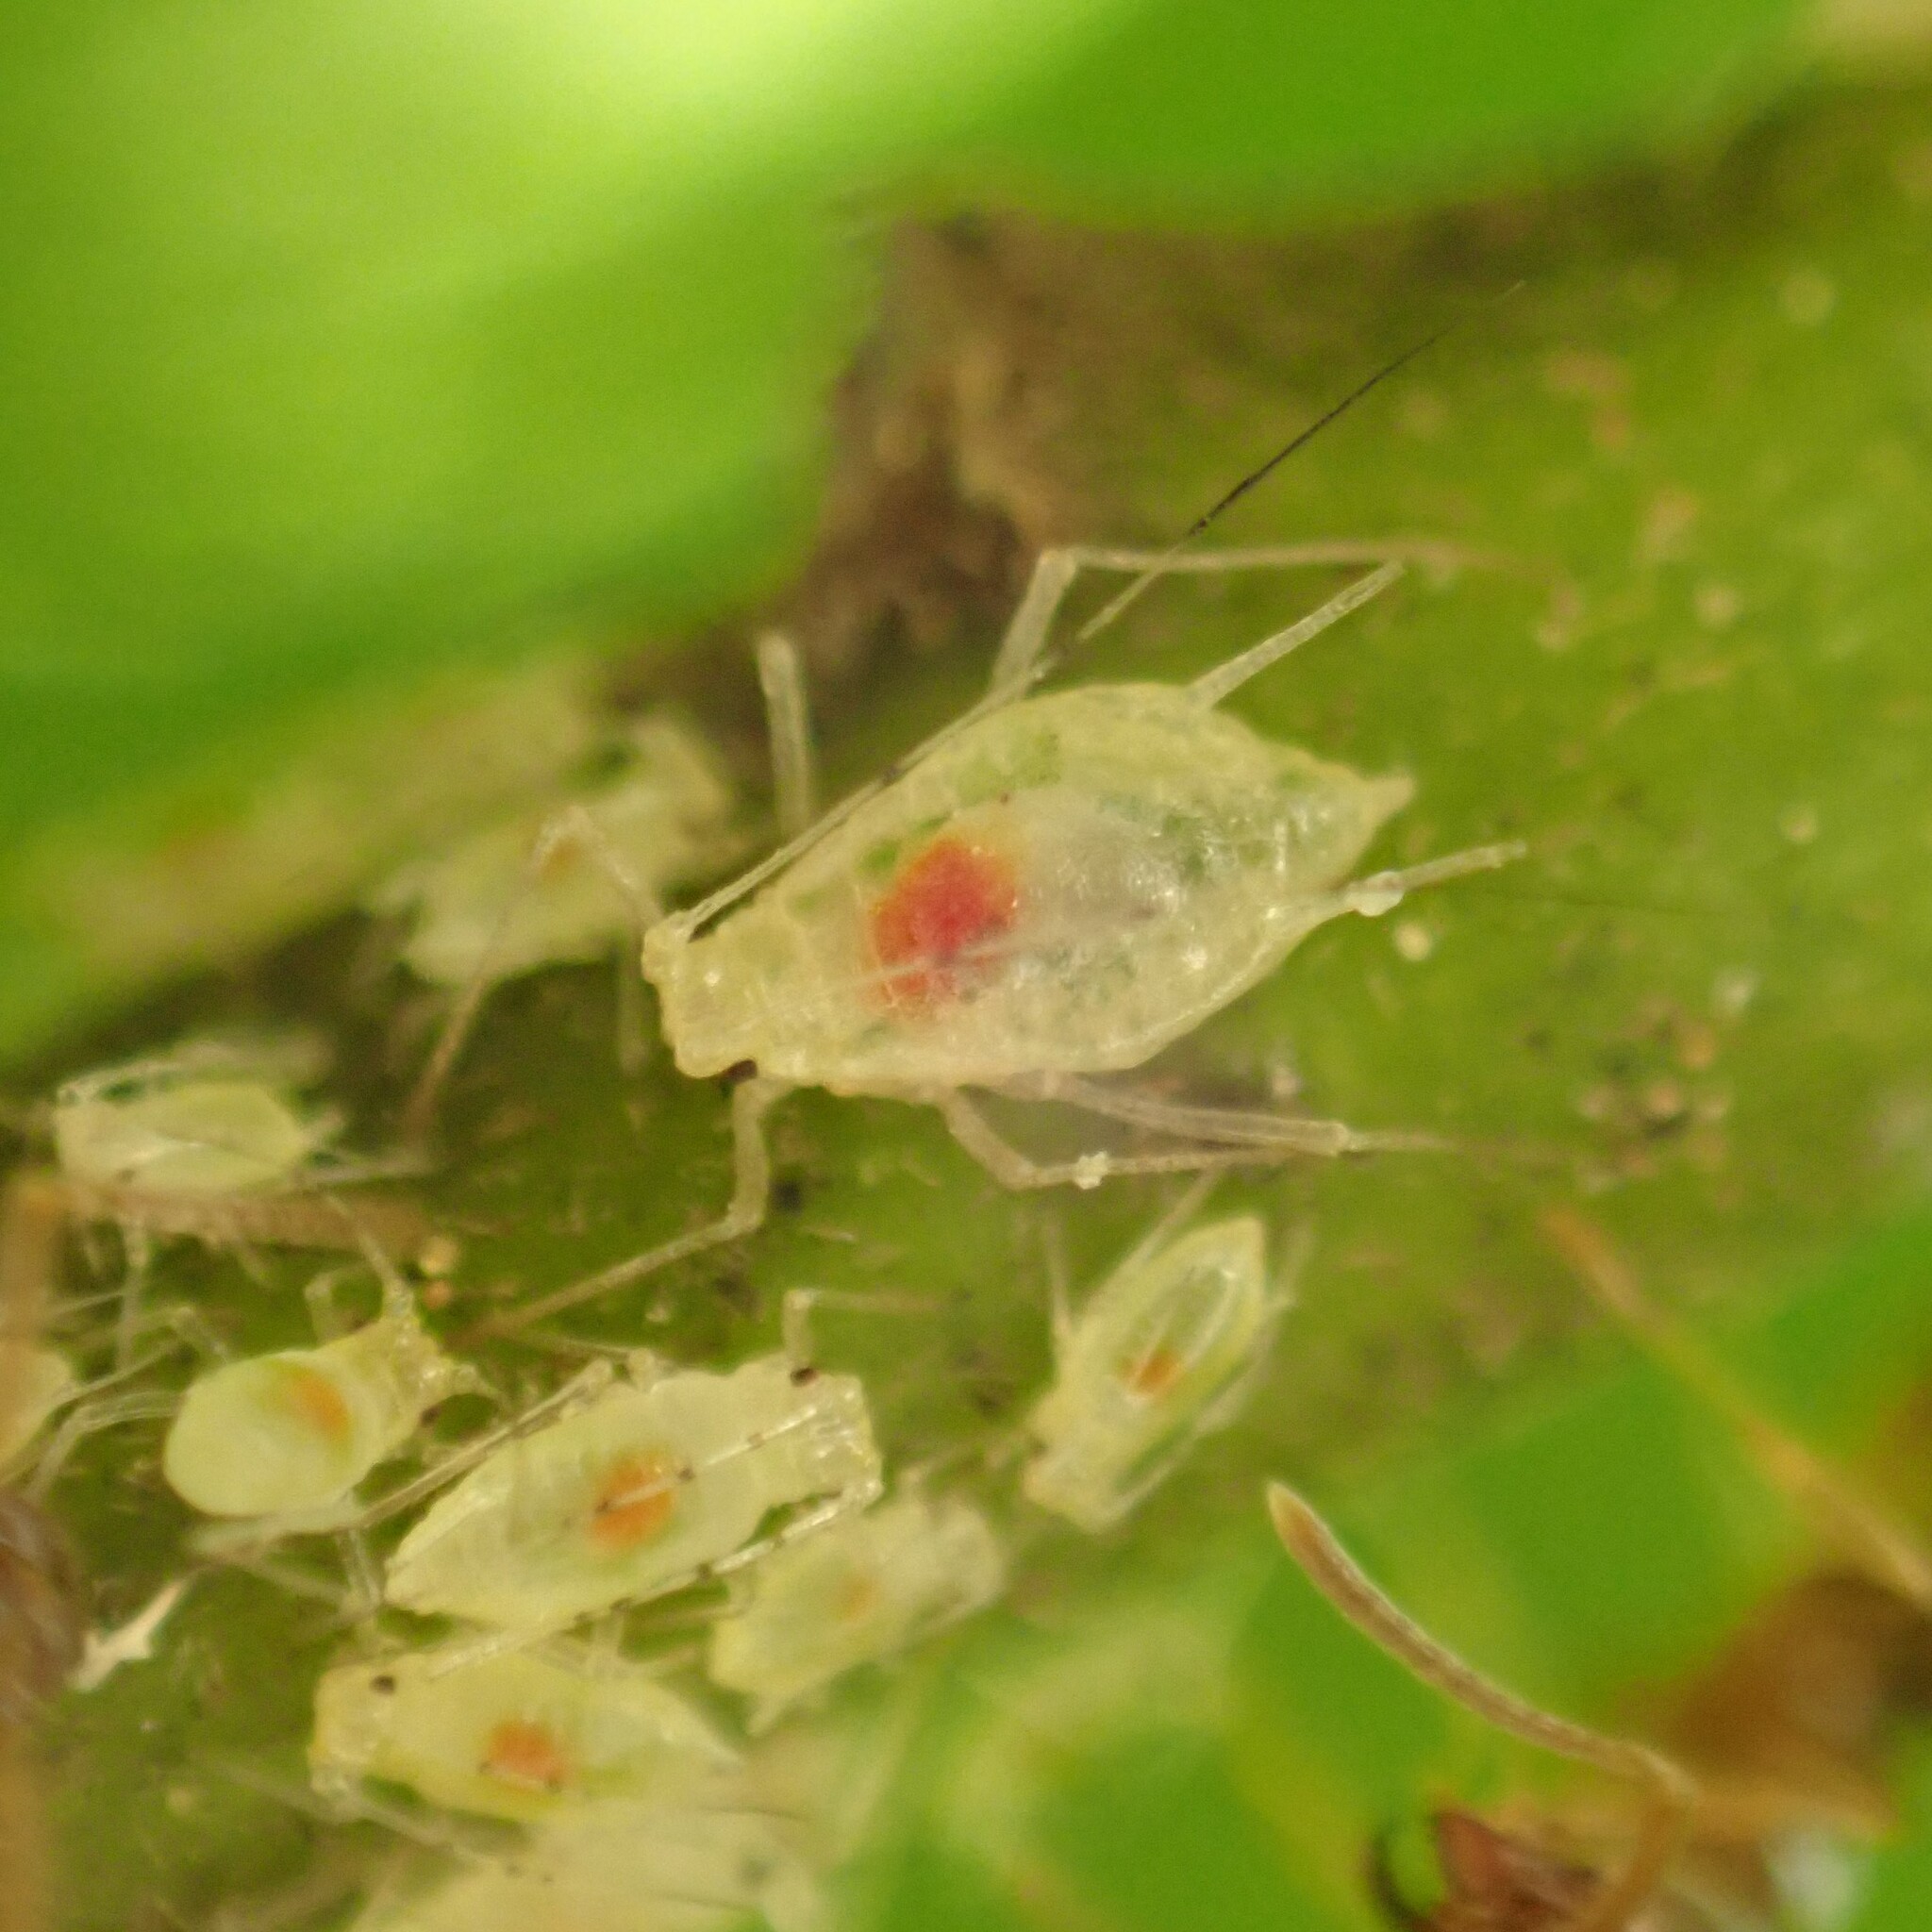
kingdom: Animalia
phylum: Arthropoda
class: Insecta
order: Hemiptera
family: Aphididae
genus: Macrosiphum
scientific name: Macrosiphum rhamni
